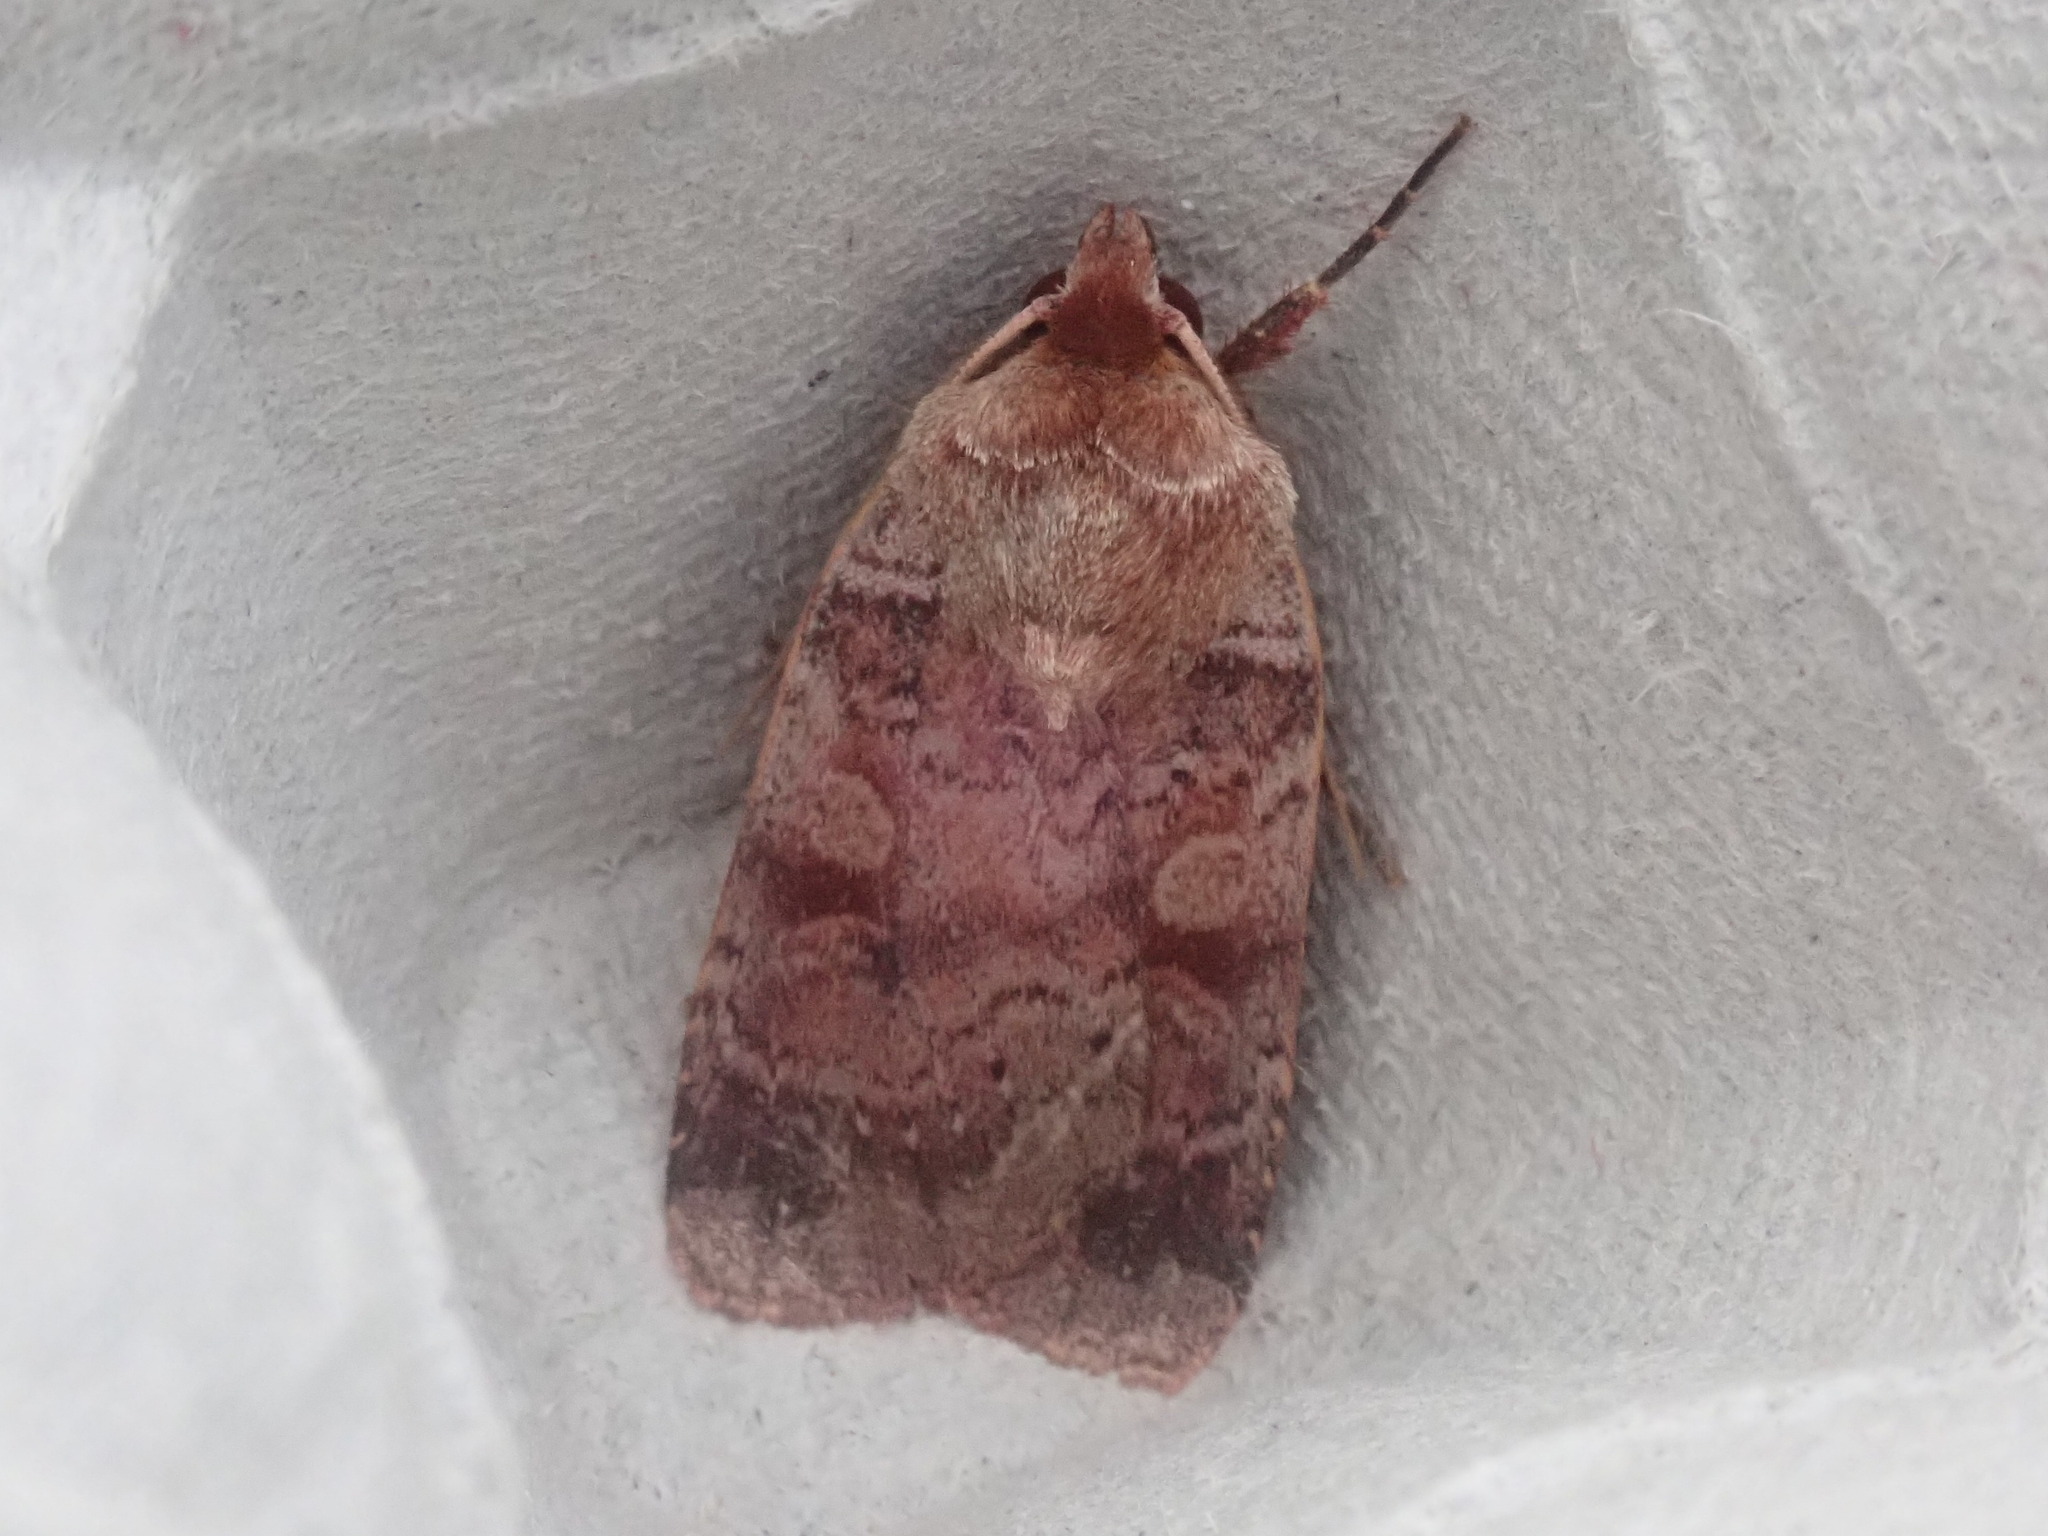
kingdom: Animalia
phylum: Arthropoda
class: Insecta
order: Lepidoptera
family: Noctuidae
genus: Lycophotia
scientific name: Lycophotia phyllophora
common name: Lycophotia moth
